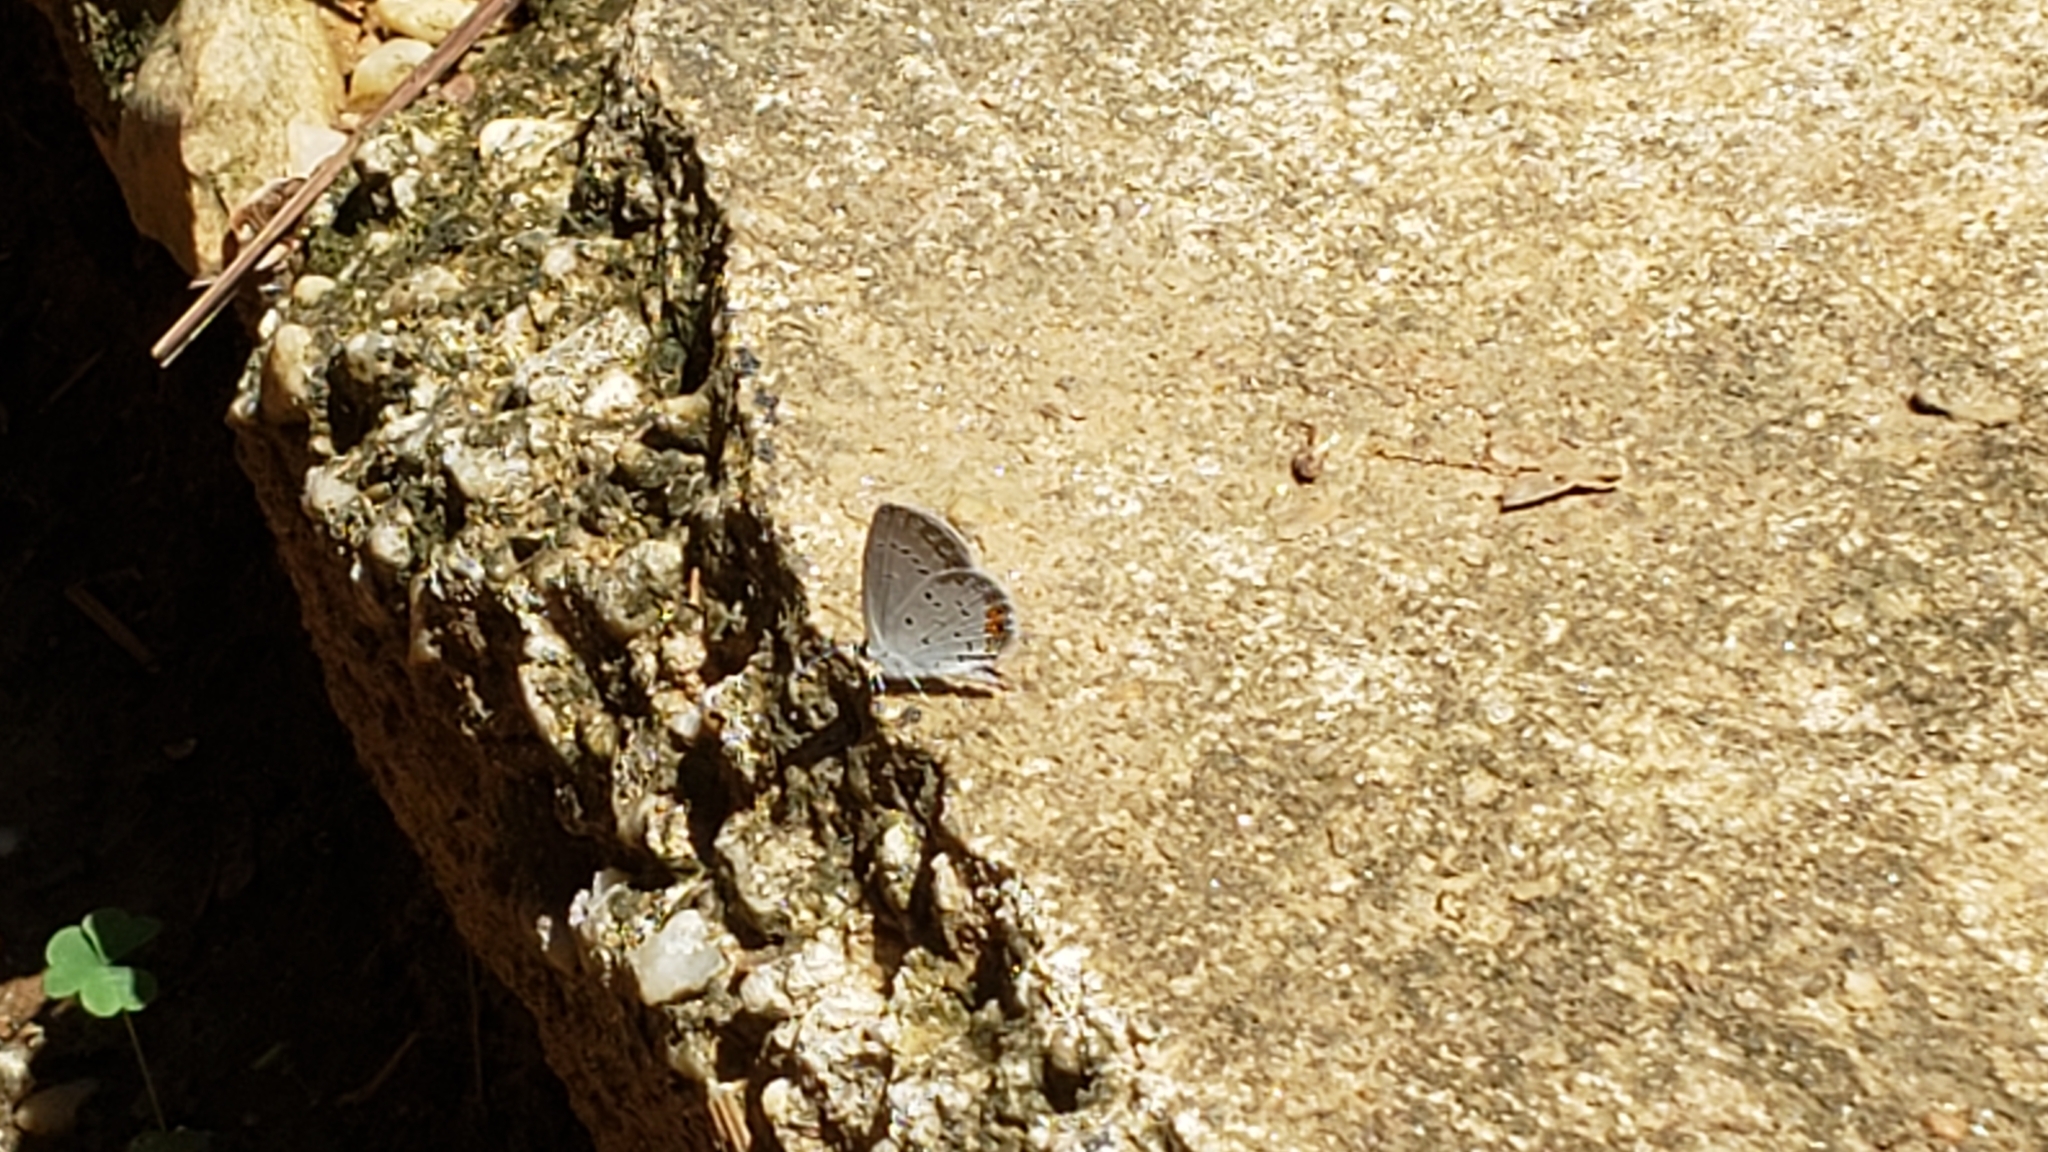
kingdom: Animalia
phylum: Arthropoda
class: Insecta
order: Lepidoptera
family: Lycaenidae
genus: Elkalyce
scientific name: Elkalyce comyntas
